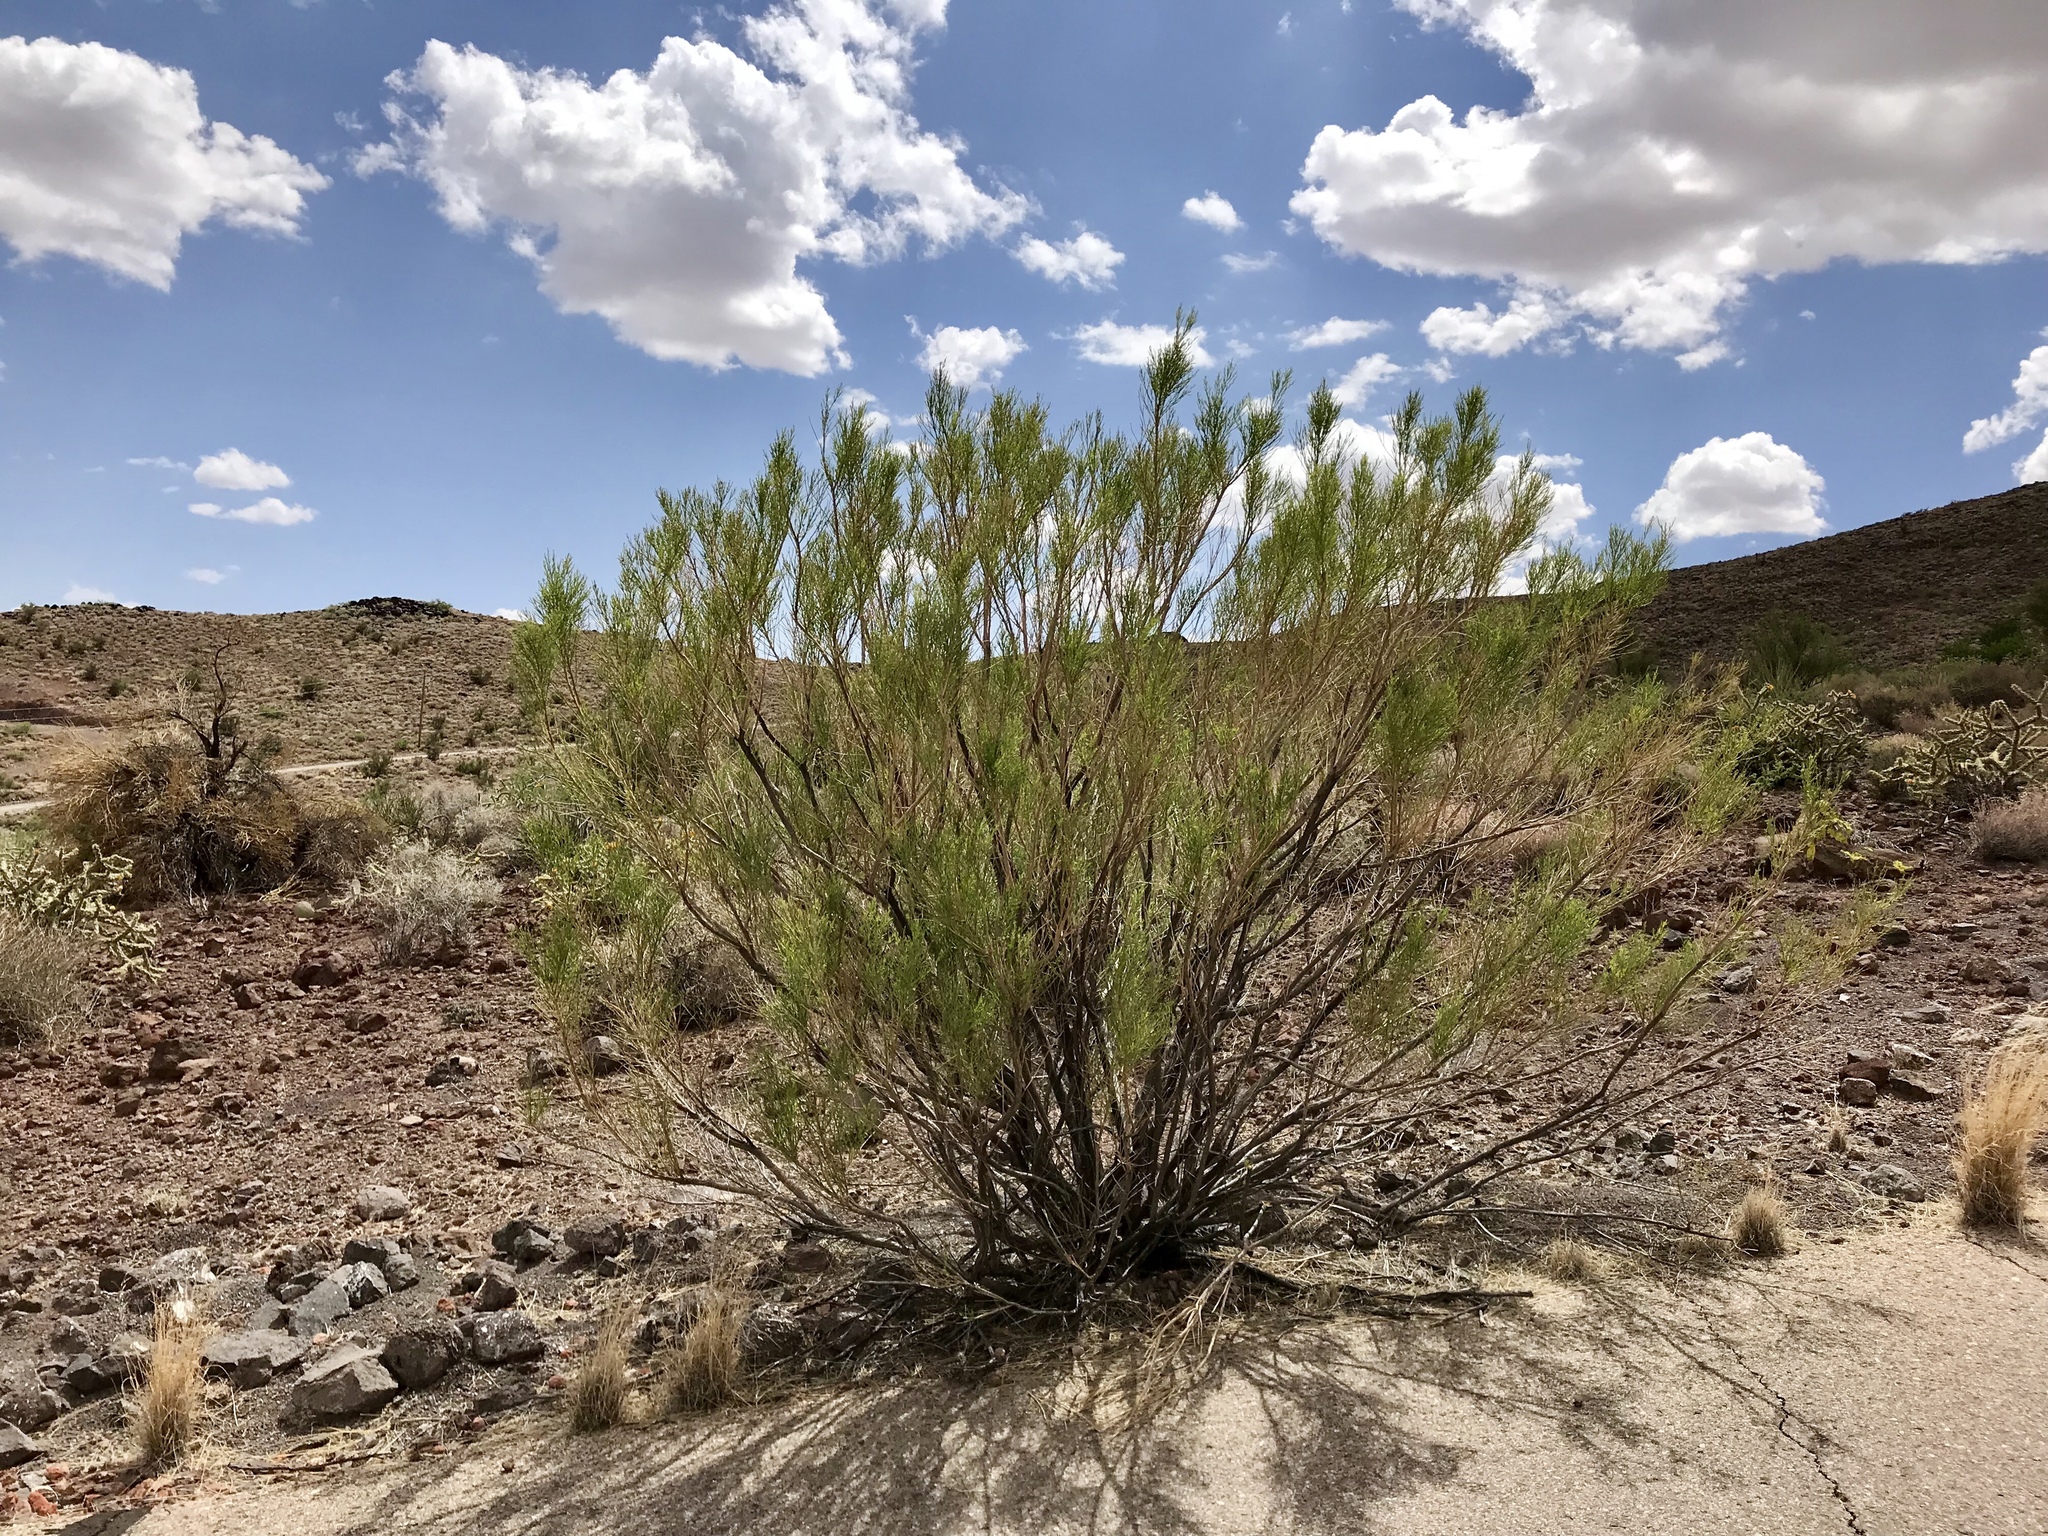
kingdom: Plantae
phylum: Tracheophyta
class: Magnoliopsida
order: Asterales
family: Asteraceae
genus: Baccharis
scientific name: Baccharis sarothroides
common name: Desert-broom
